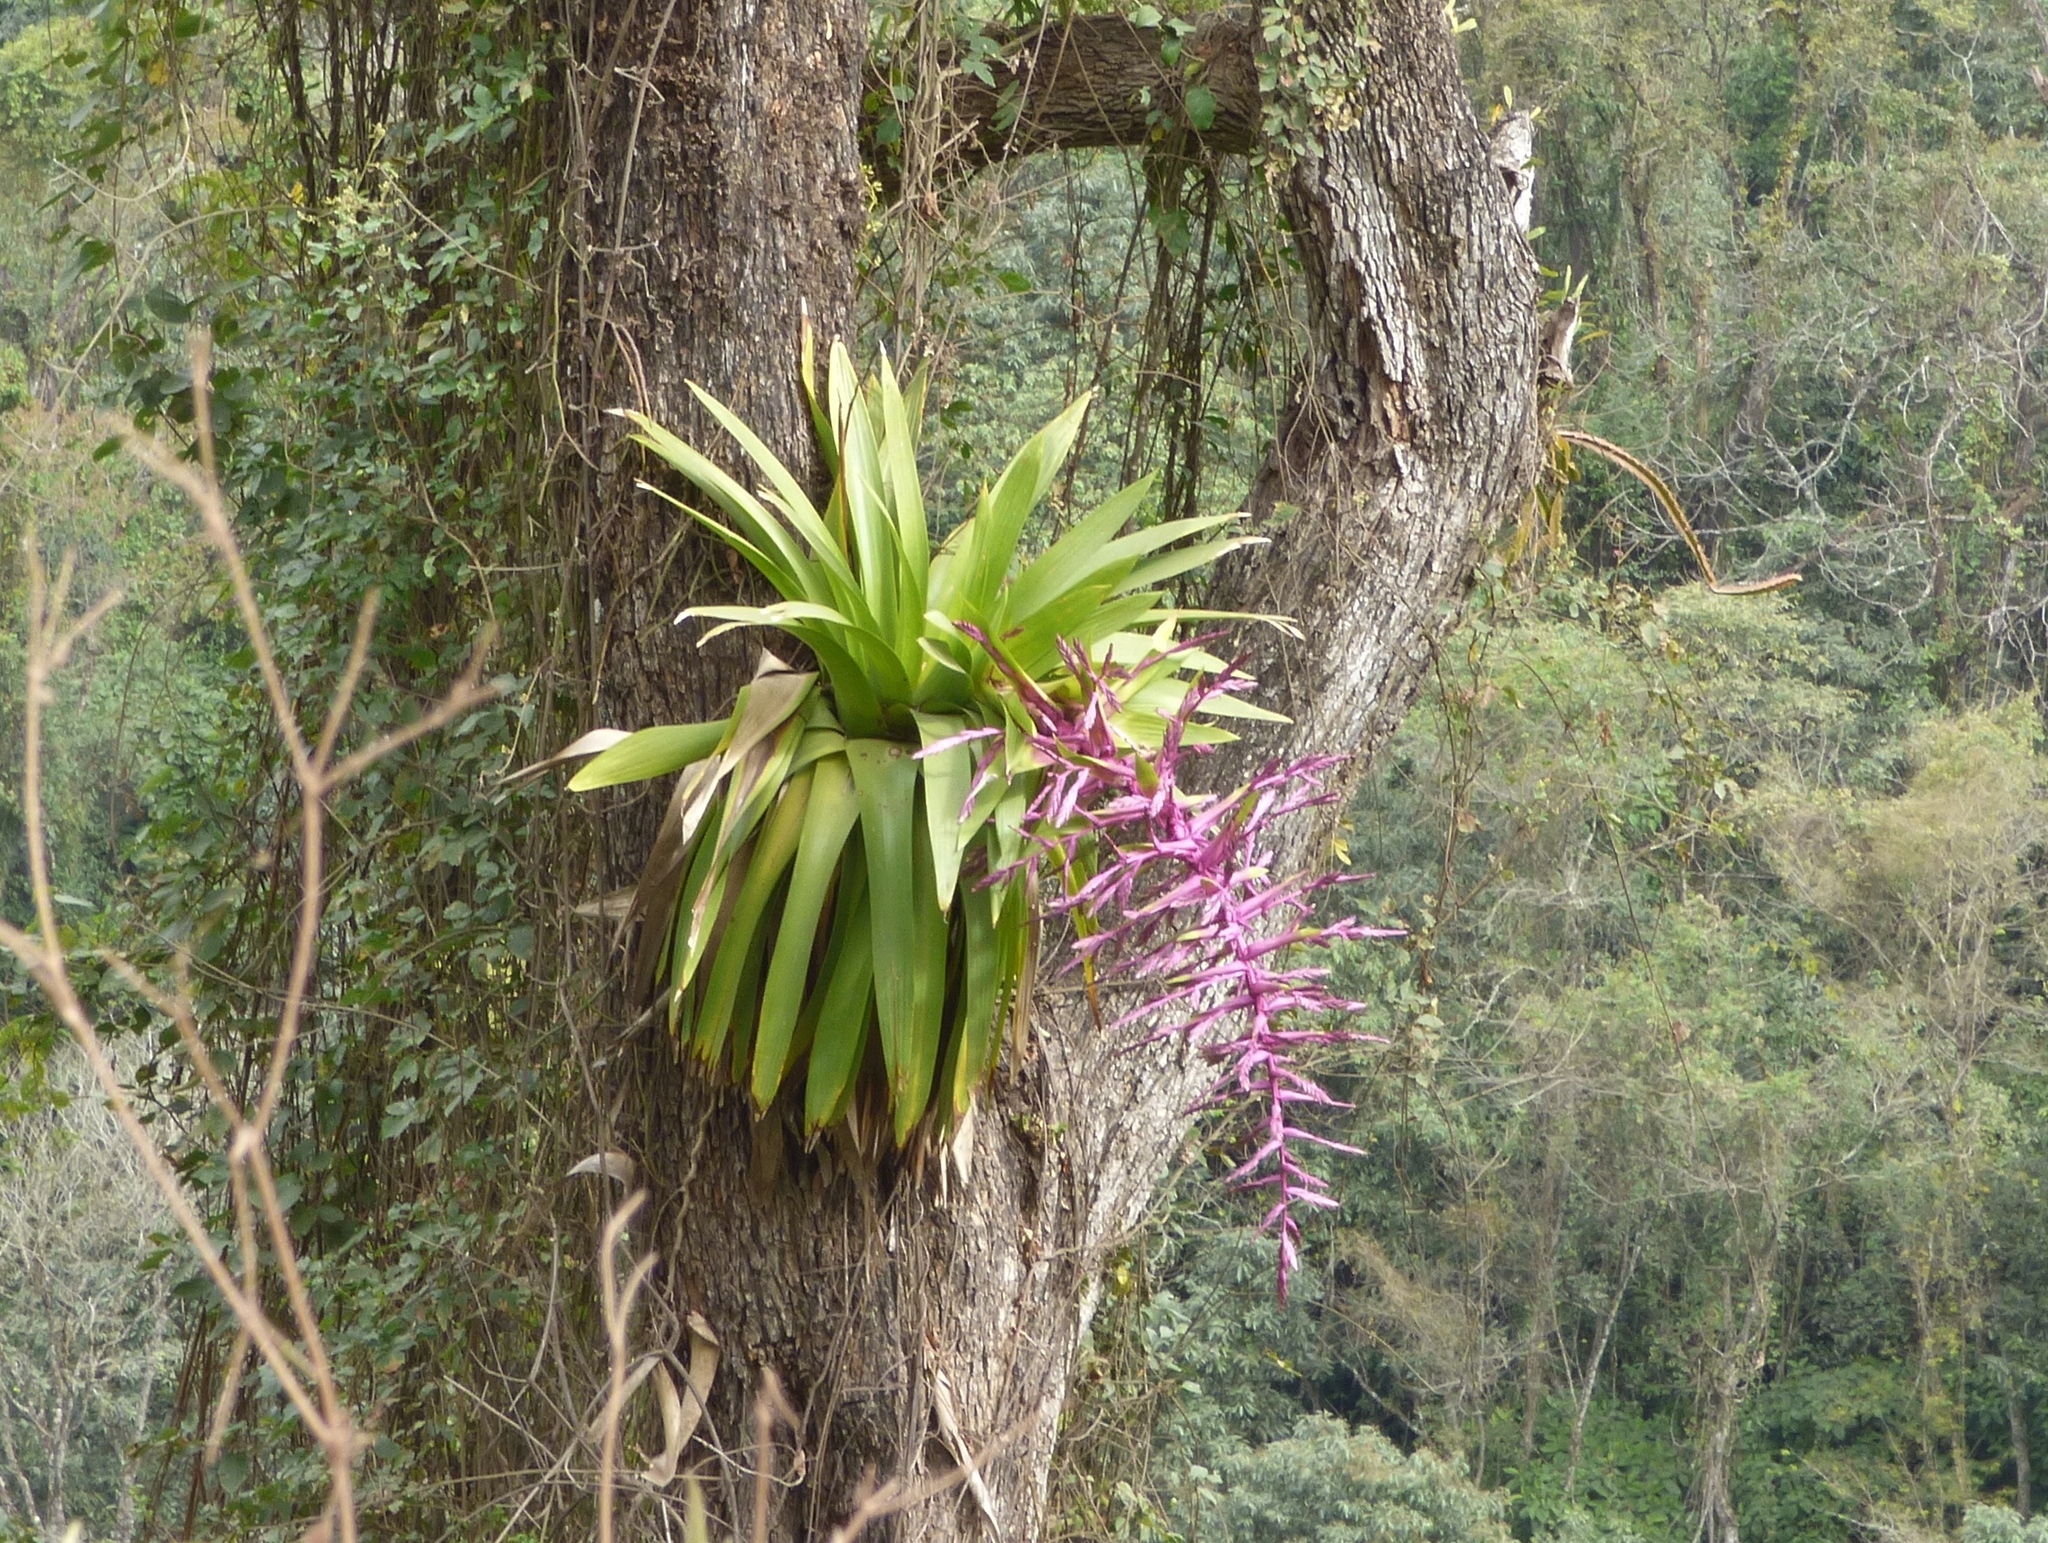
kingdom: Plantae
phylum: Tracheophyta
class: Liliopsida
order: Poales
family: Bromeliaceae
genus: Tillandsia
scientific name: Tillandsia australis
